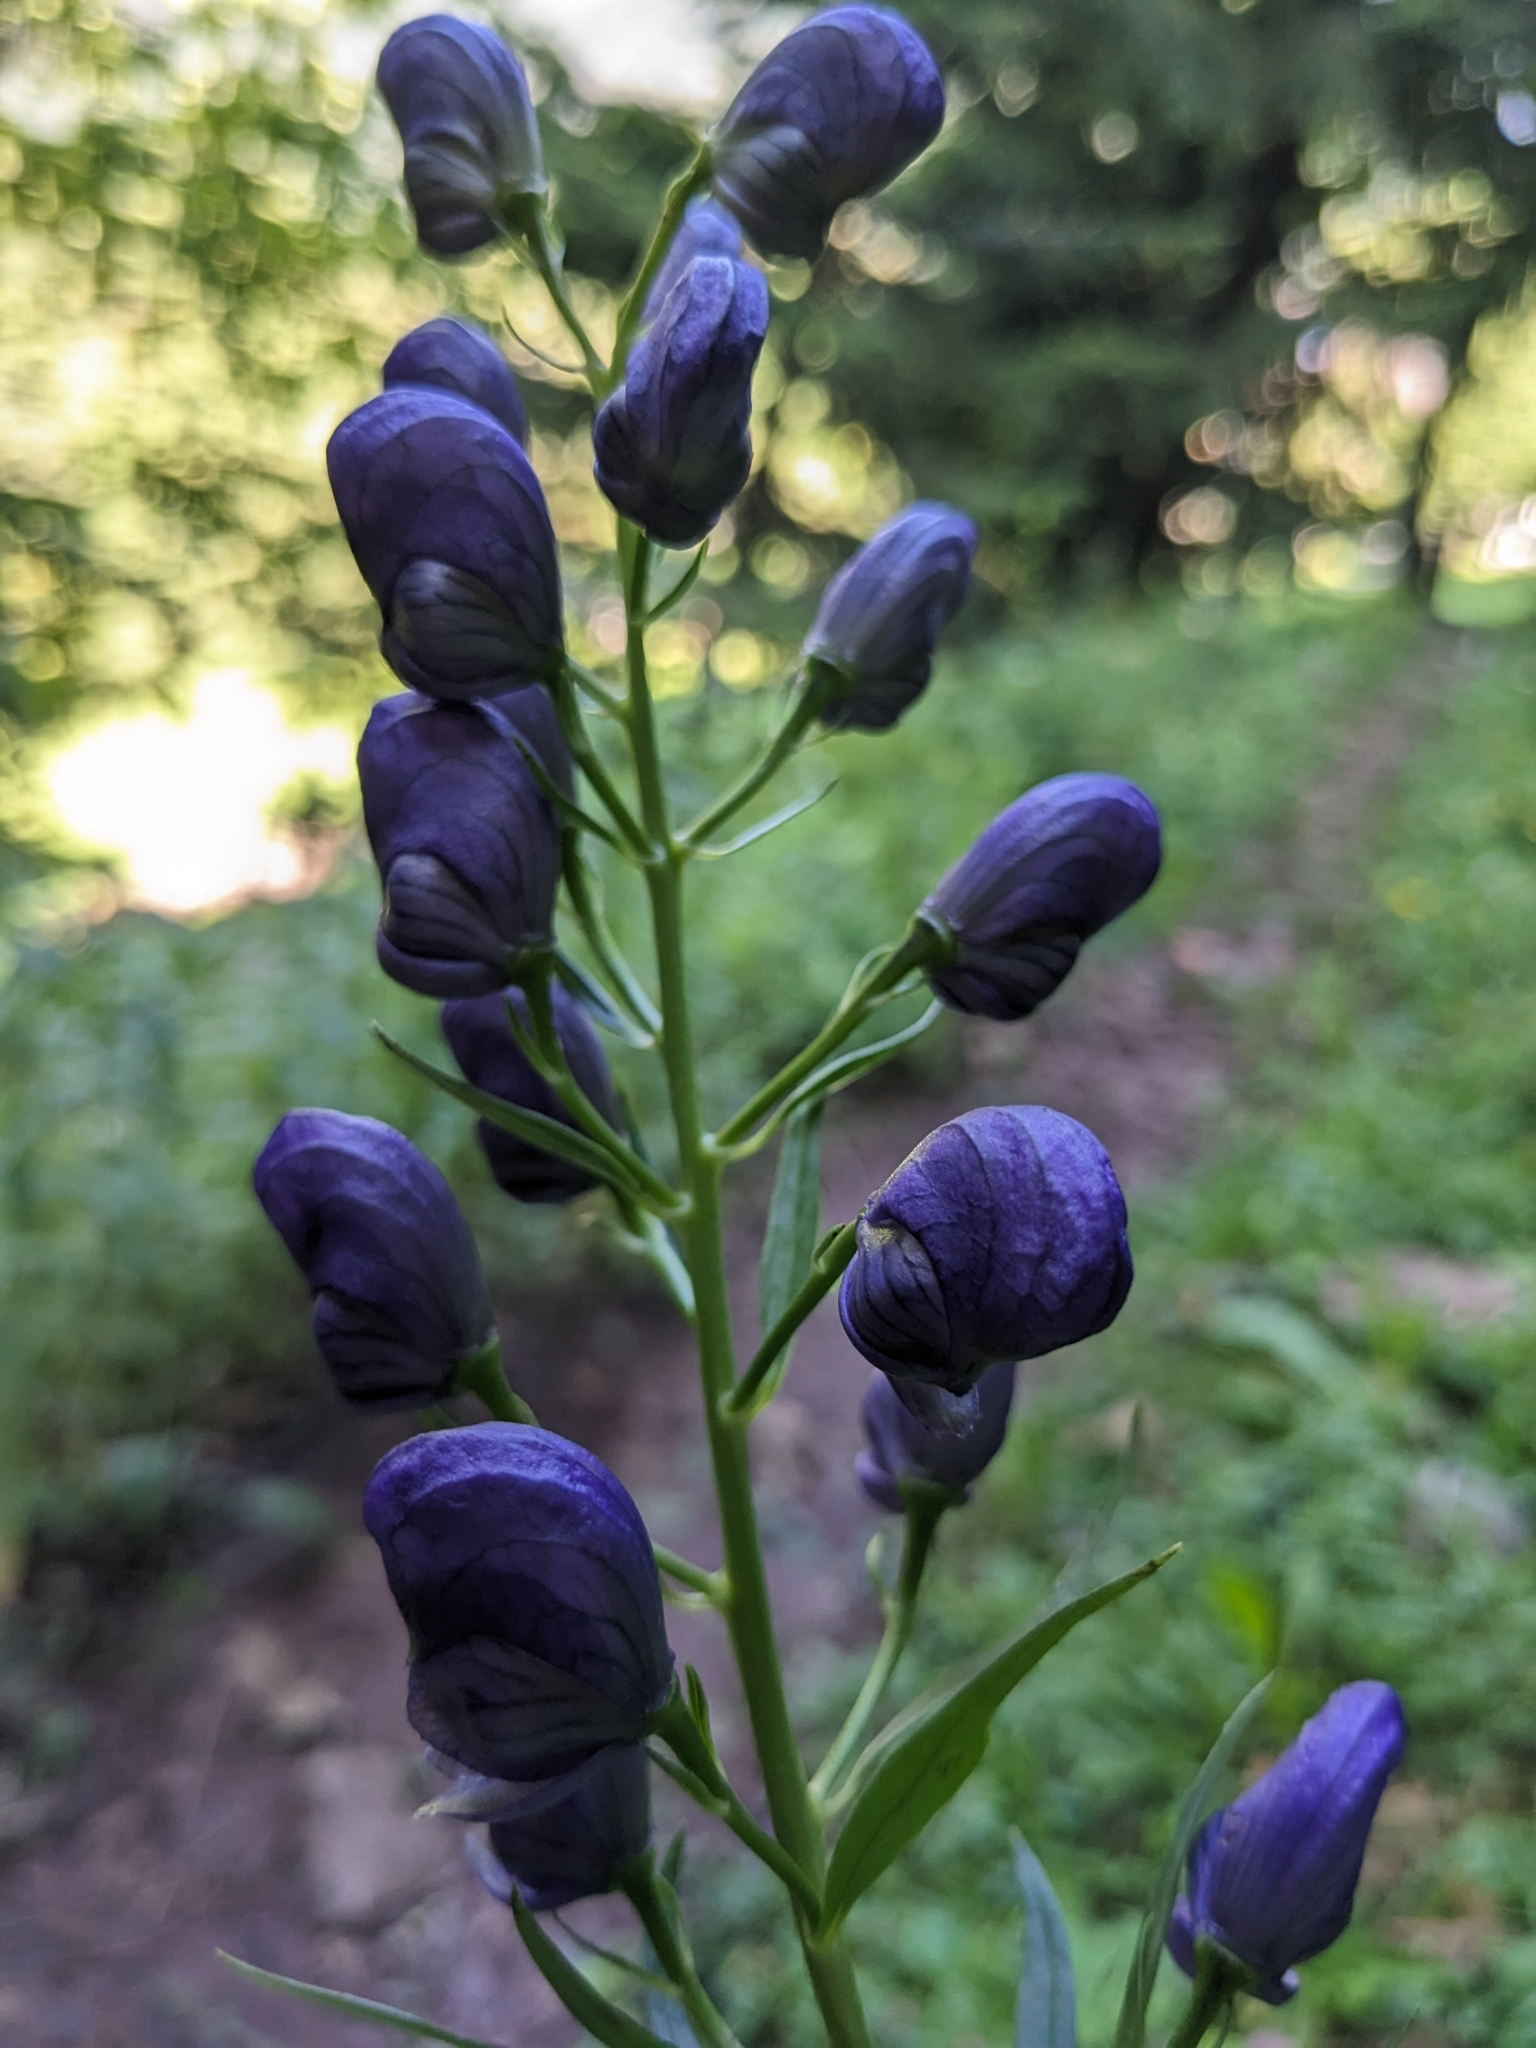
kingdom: Plantae
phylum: Tracheophyta
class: Magnoliopsida
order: Ranunculales
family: Ranunculaceae
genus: Aconitum
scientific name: Aconitum angustifolium
